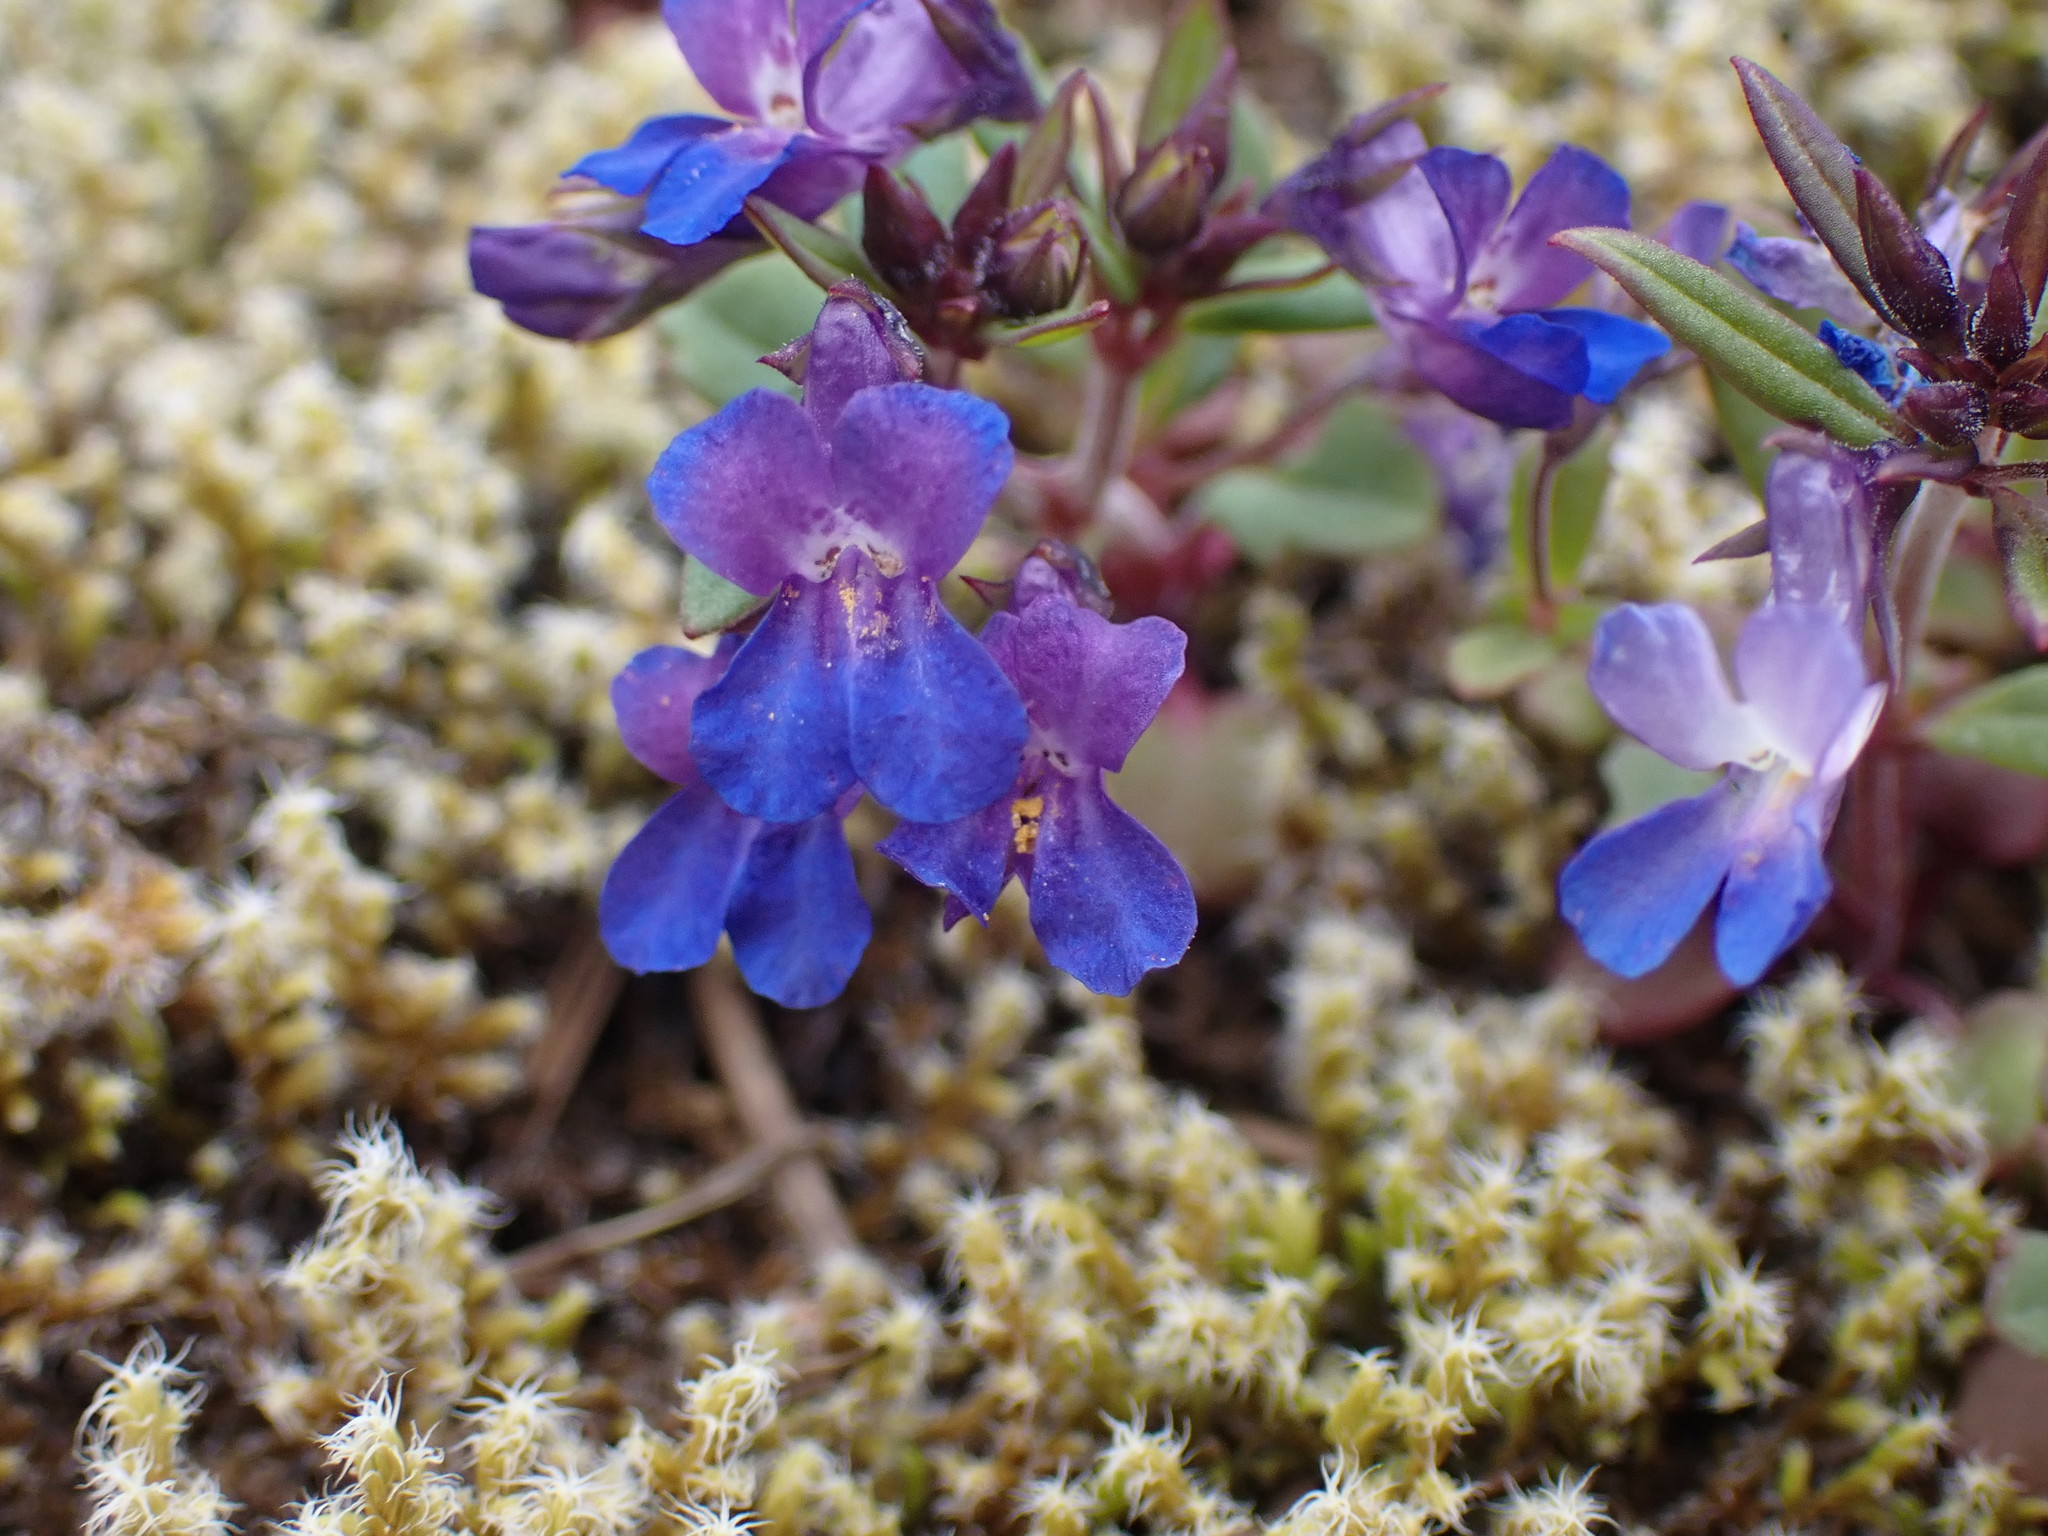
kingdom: Plantae
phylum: Tracheophyta
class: Magnoliopsida
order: Lamiales
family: Plantaginaceae
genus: Collinsia
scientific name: Collinsia grandiflora
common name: Large-flower blue-eyed-mary
